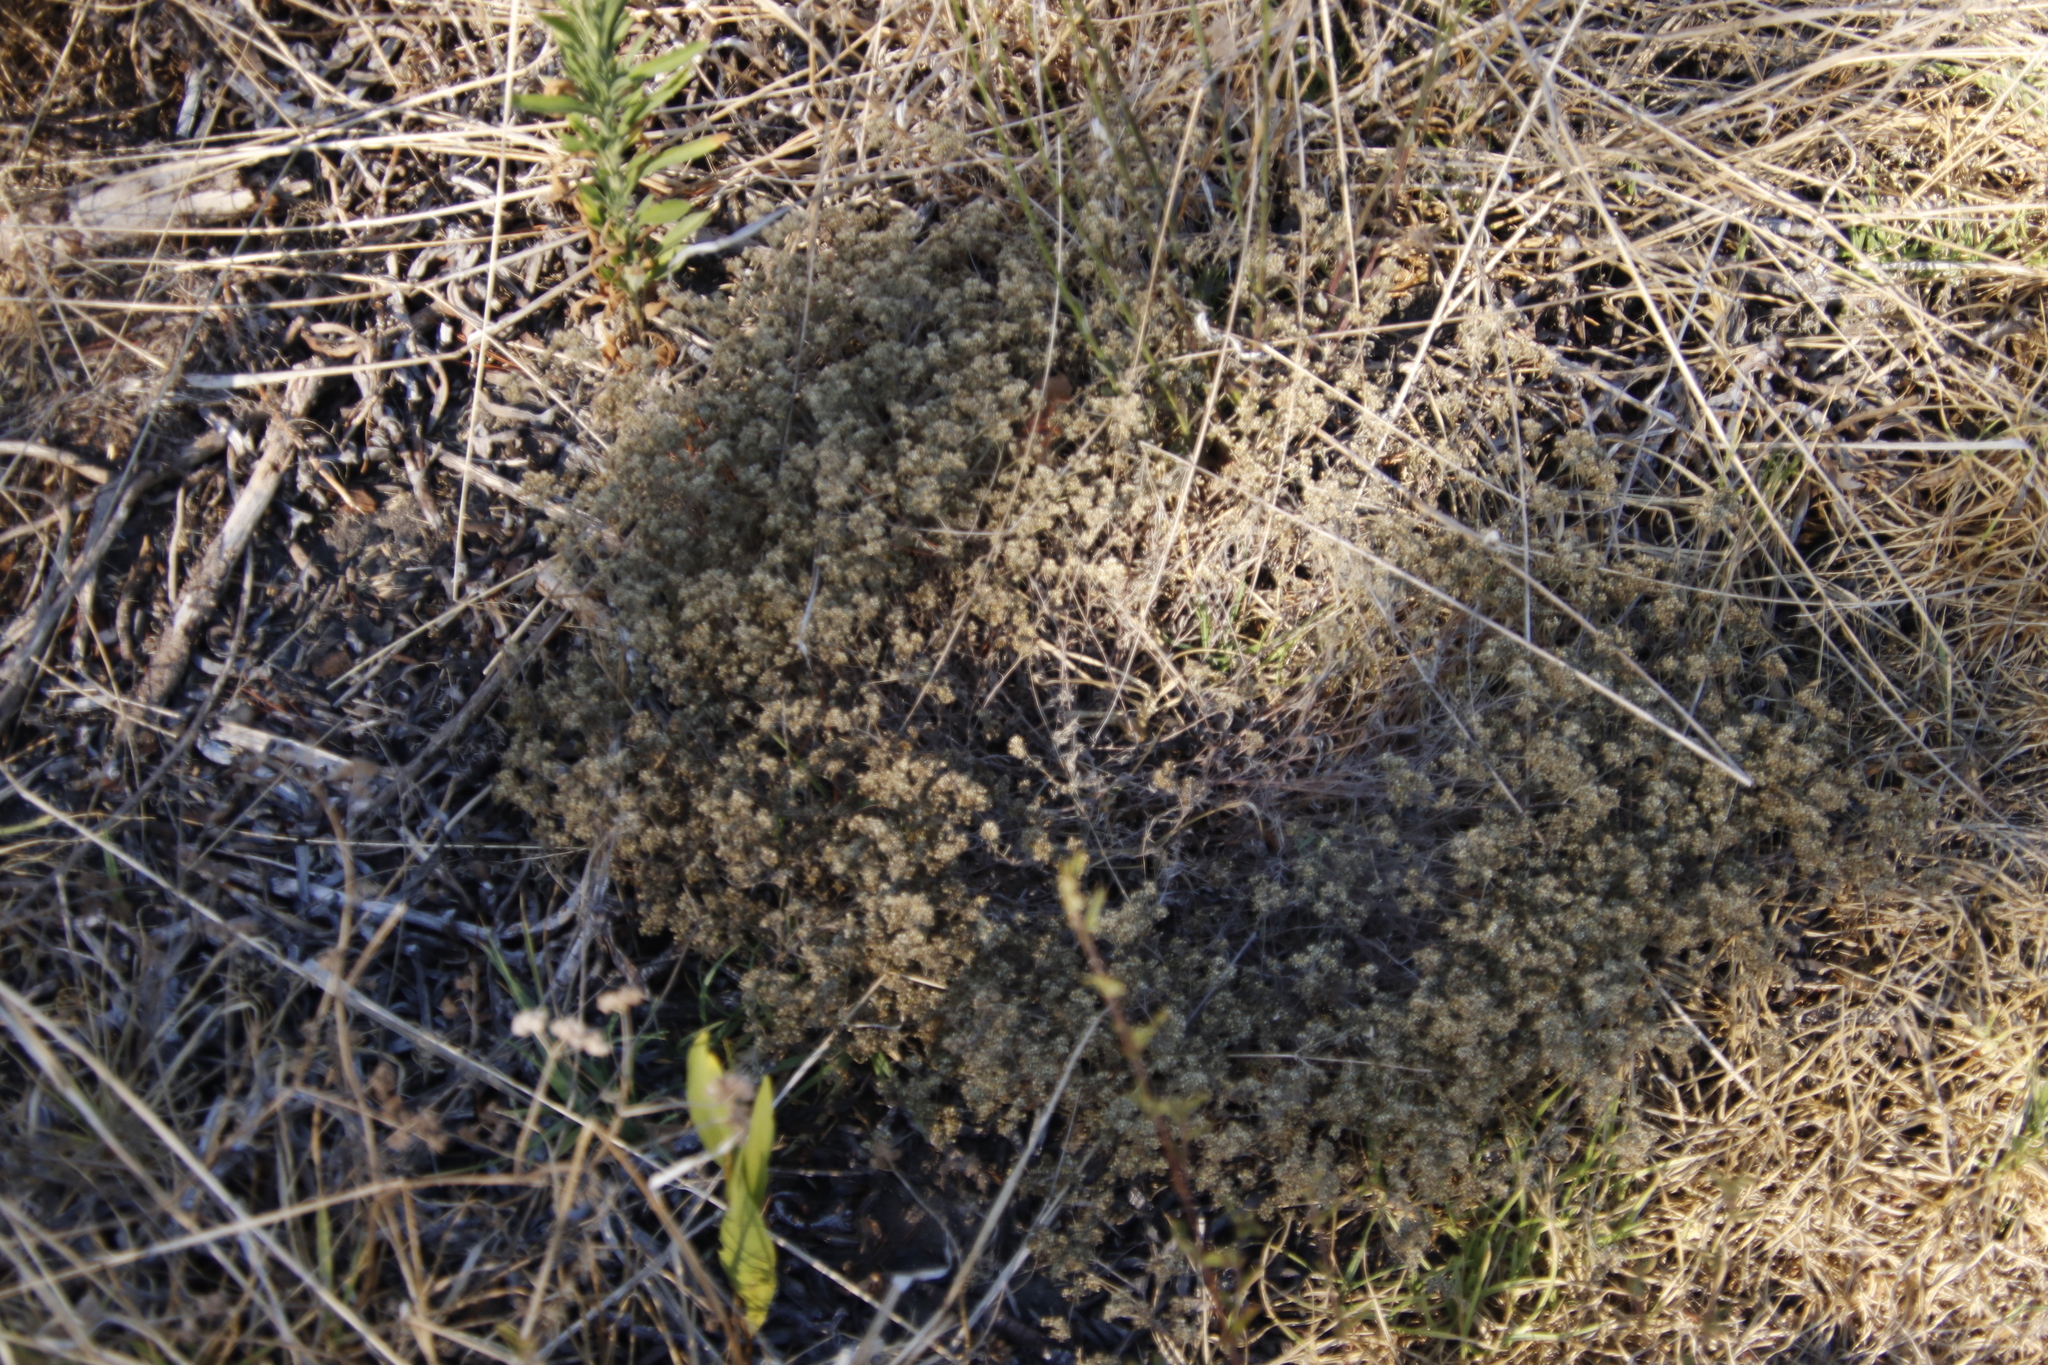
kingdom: Plantae
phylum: Tracheophyta
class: Magnoliopsida
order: Asterales
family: Asteraceae
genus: Helichrysum
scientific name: Helichrysum indicum
